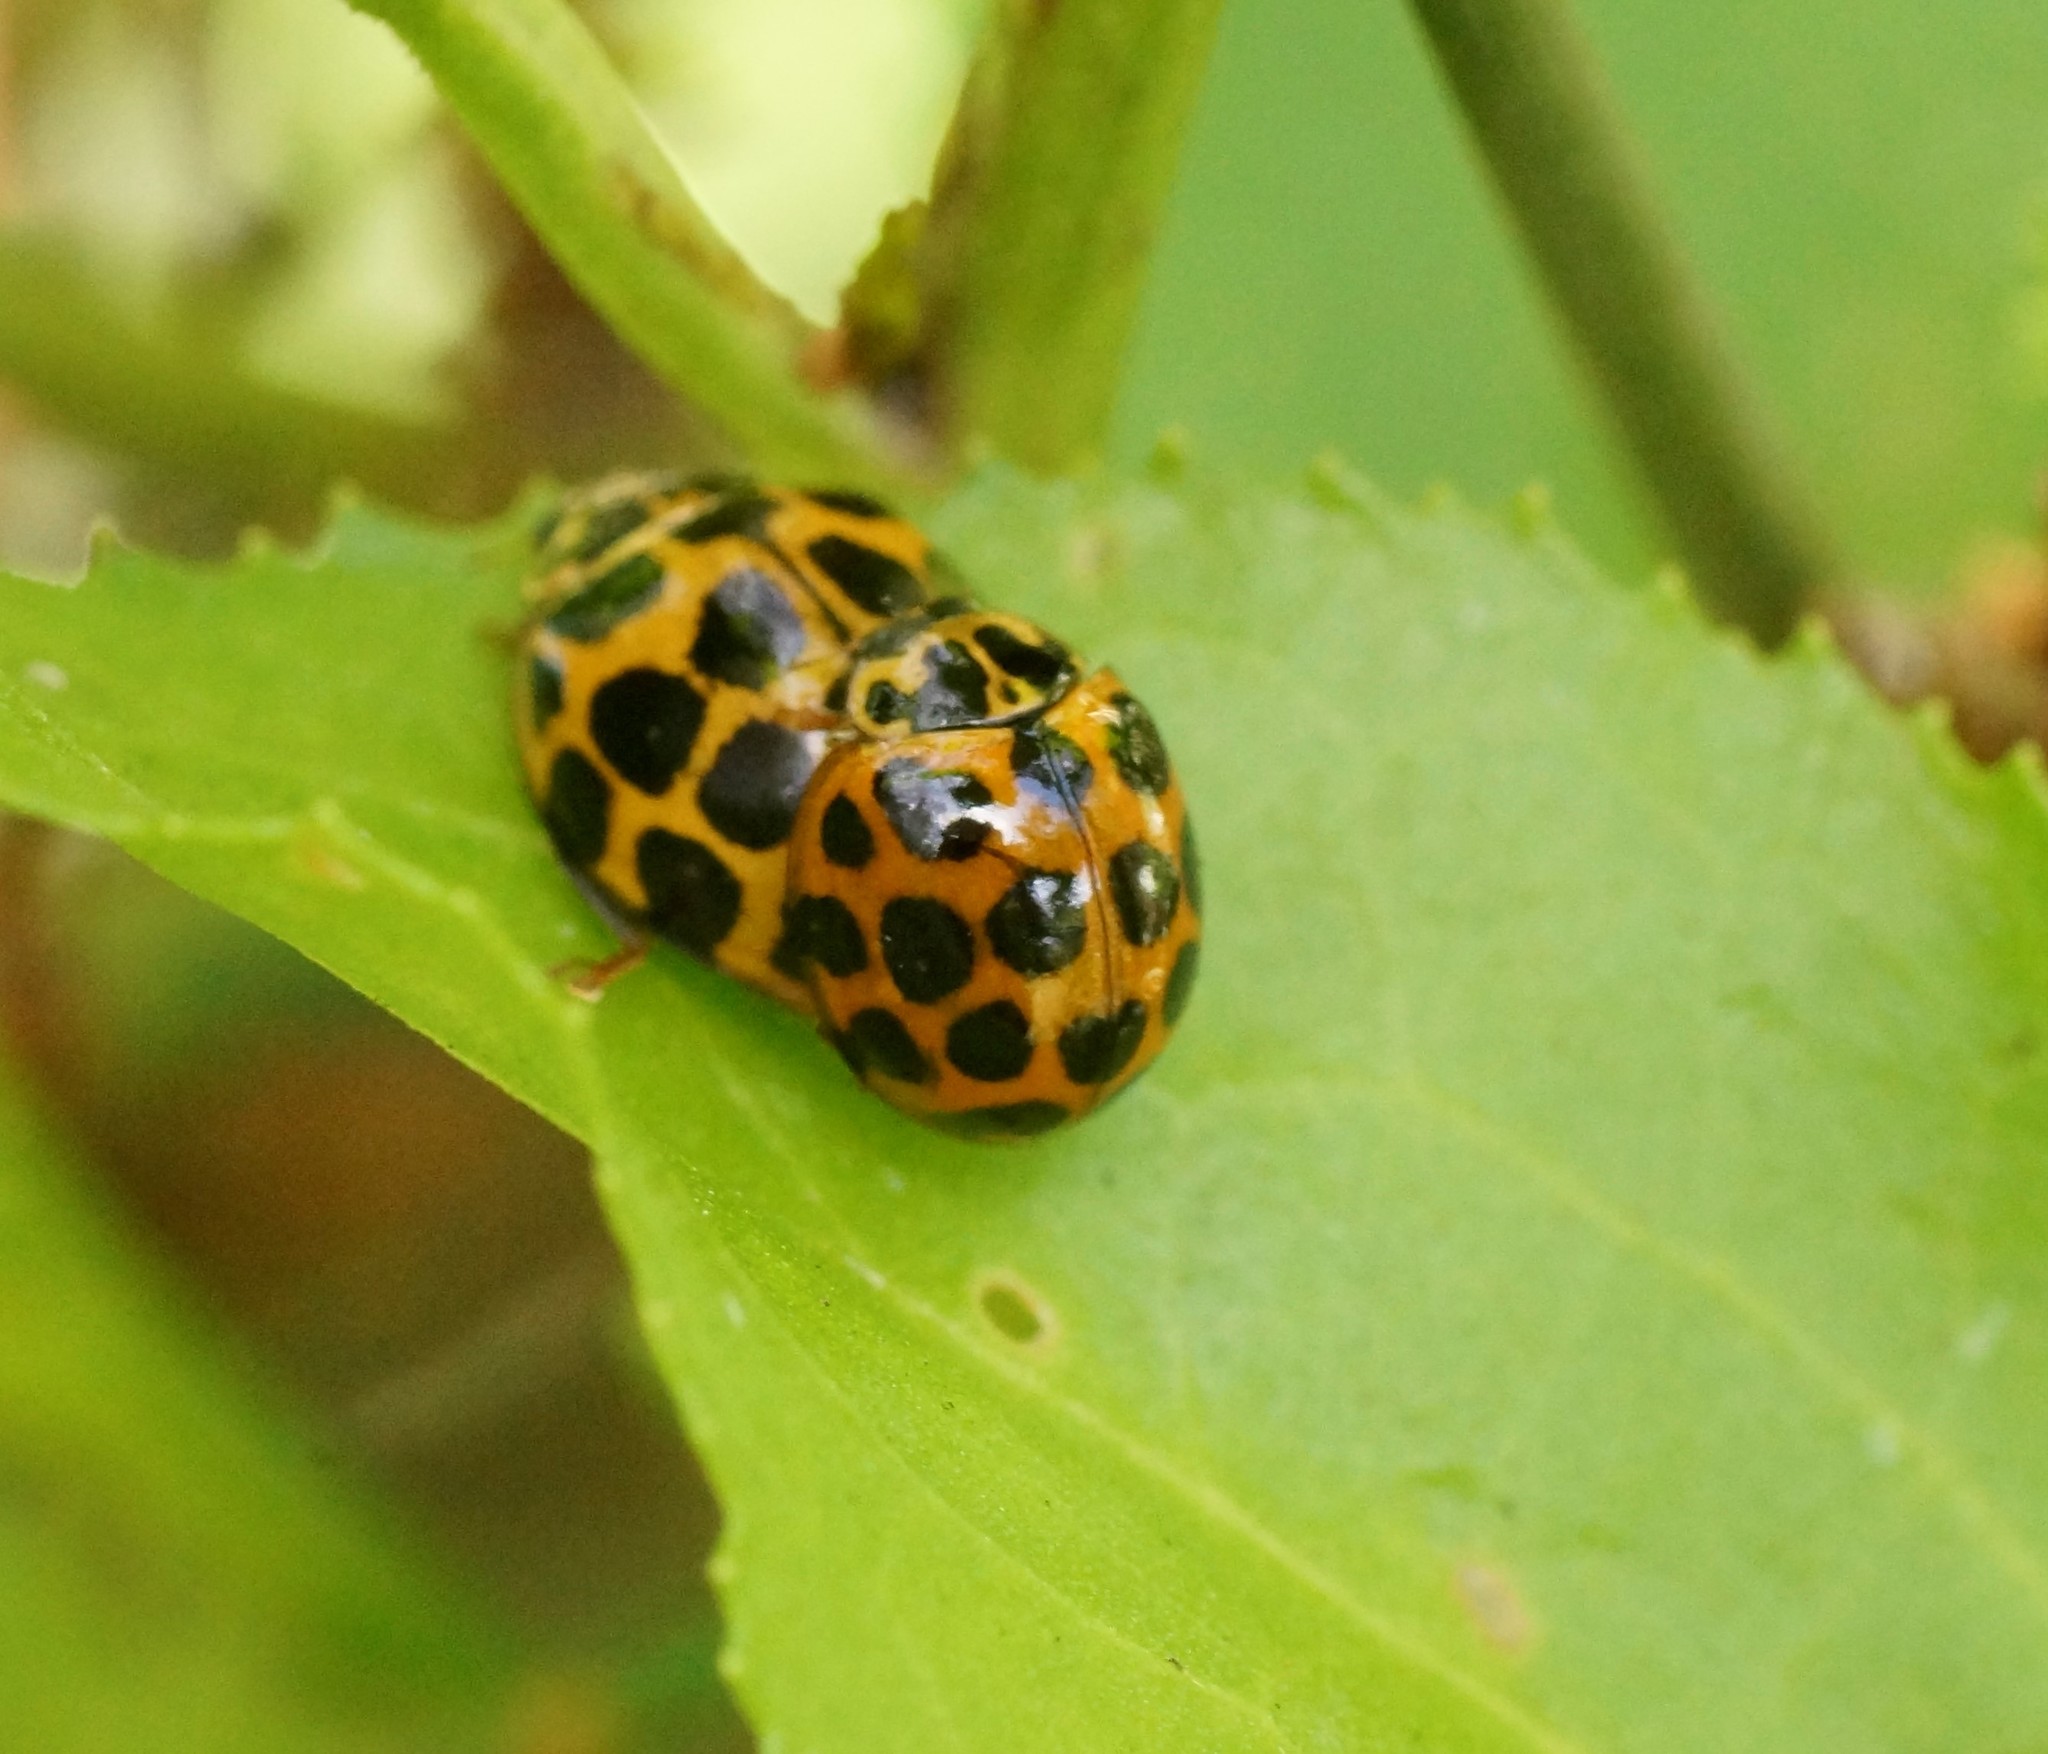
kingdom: Animalia
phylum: Arthropoda
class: Insecta
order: Coleoptera
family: Coccinellidae
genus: Harmonia
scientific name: Harmonia conformis
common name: Common spotted ladybird beetle
